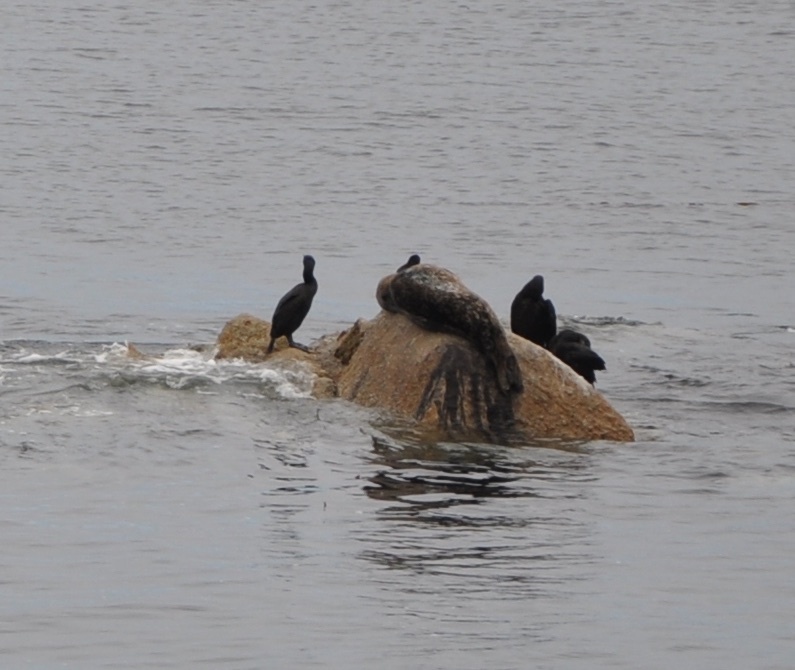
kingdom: Animalia
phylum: Chordata
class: Aves
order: Suliformes
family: Phalacrocoracidae
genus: Urile
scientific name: Urile penicillatus
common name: Brandt's cormorant
